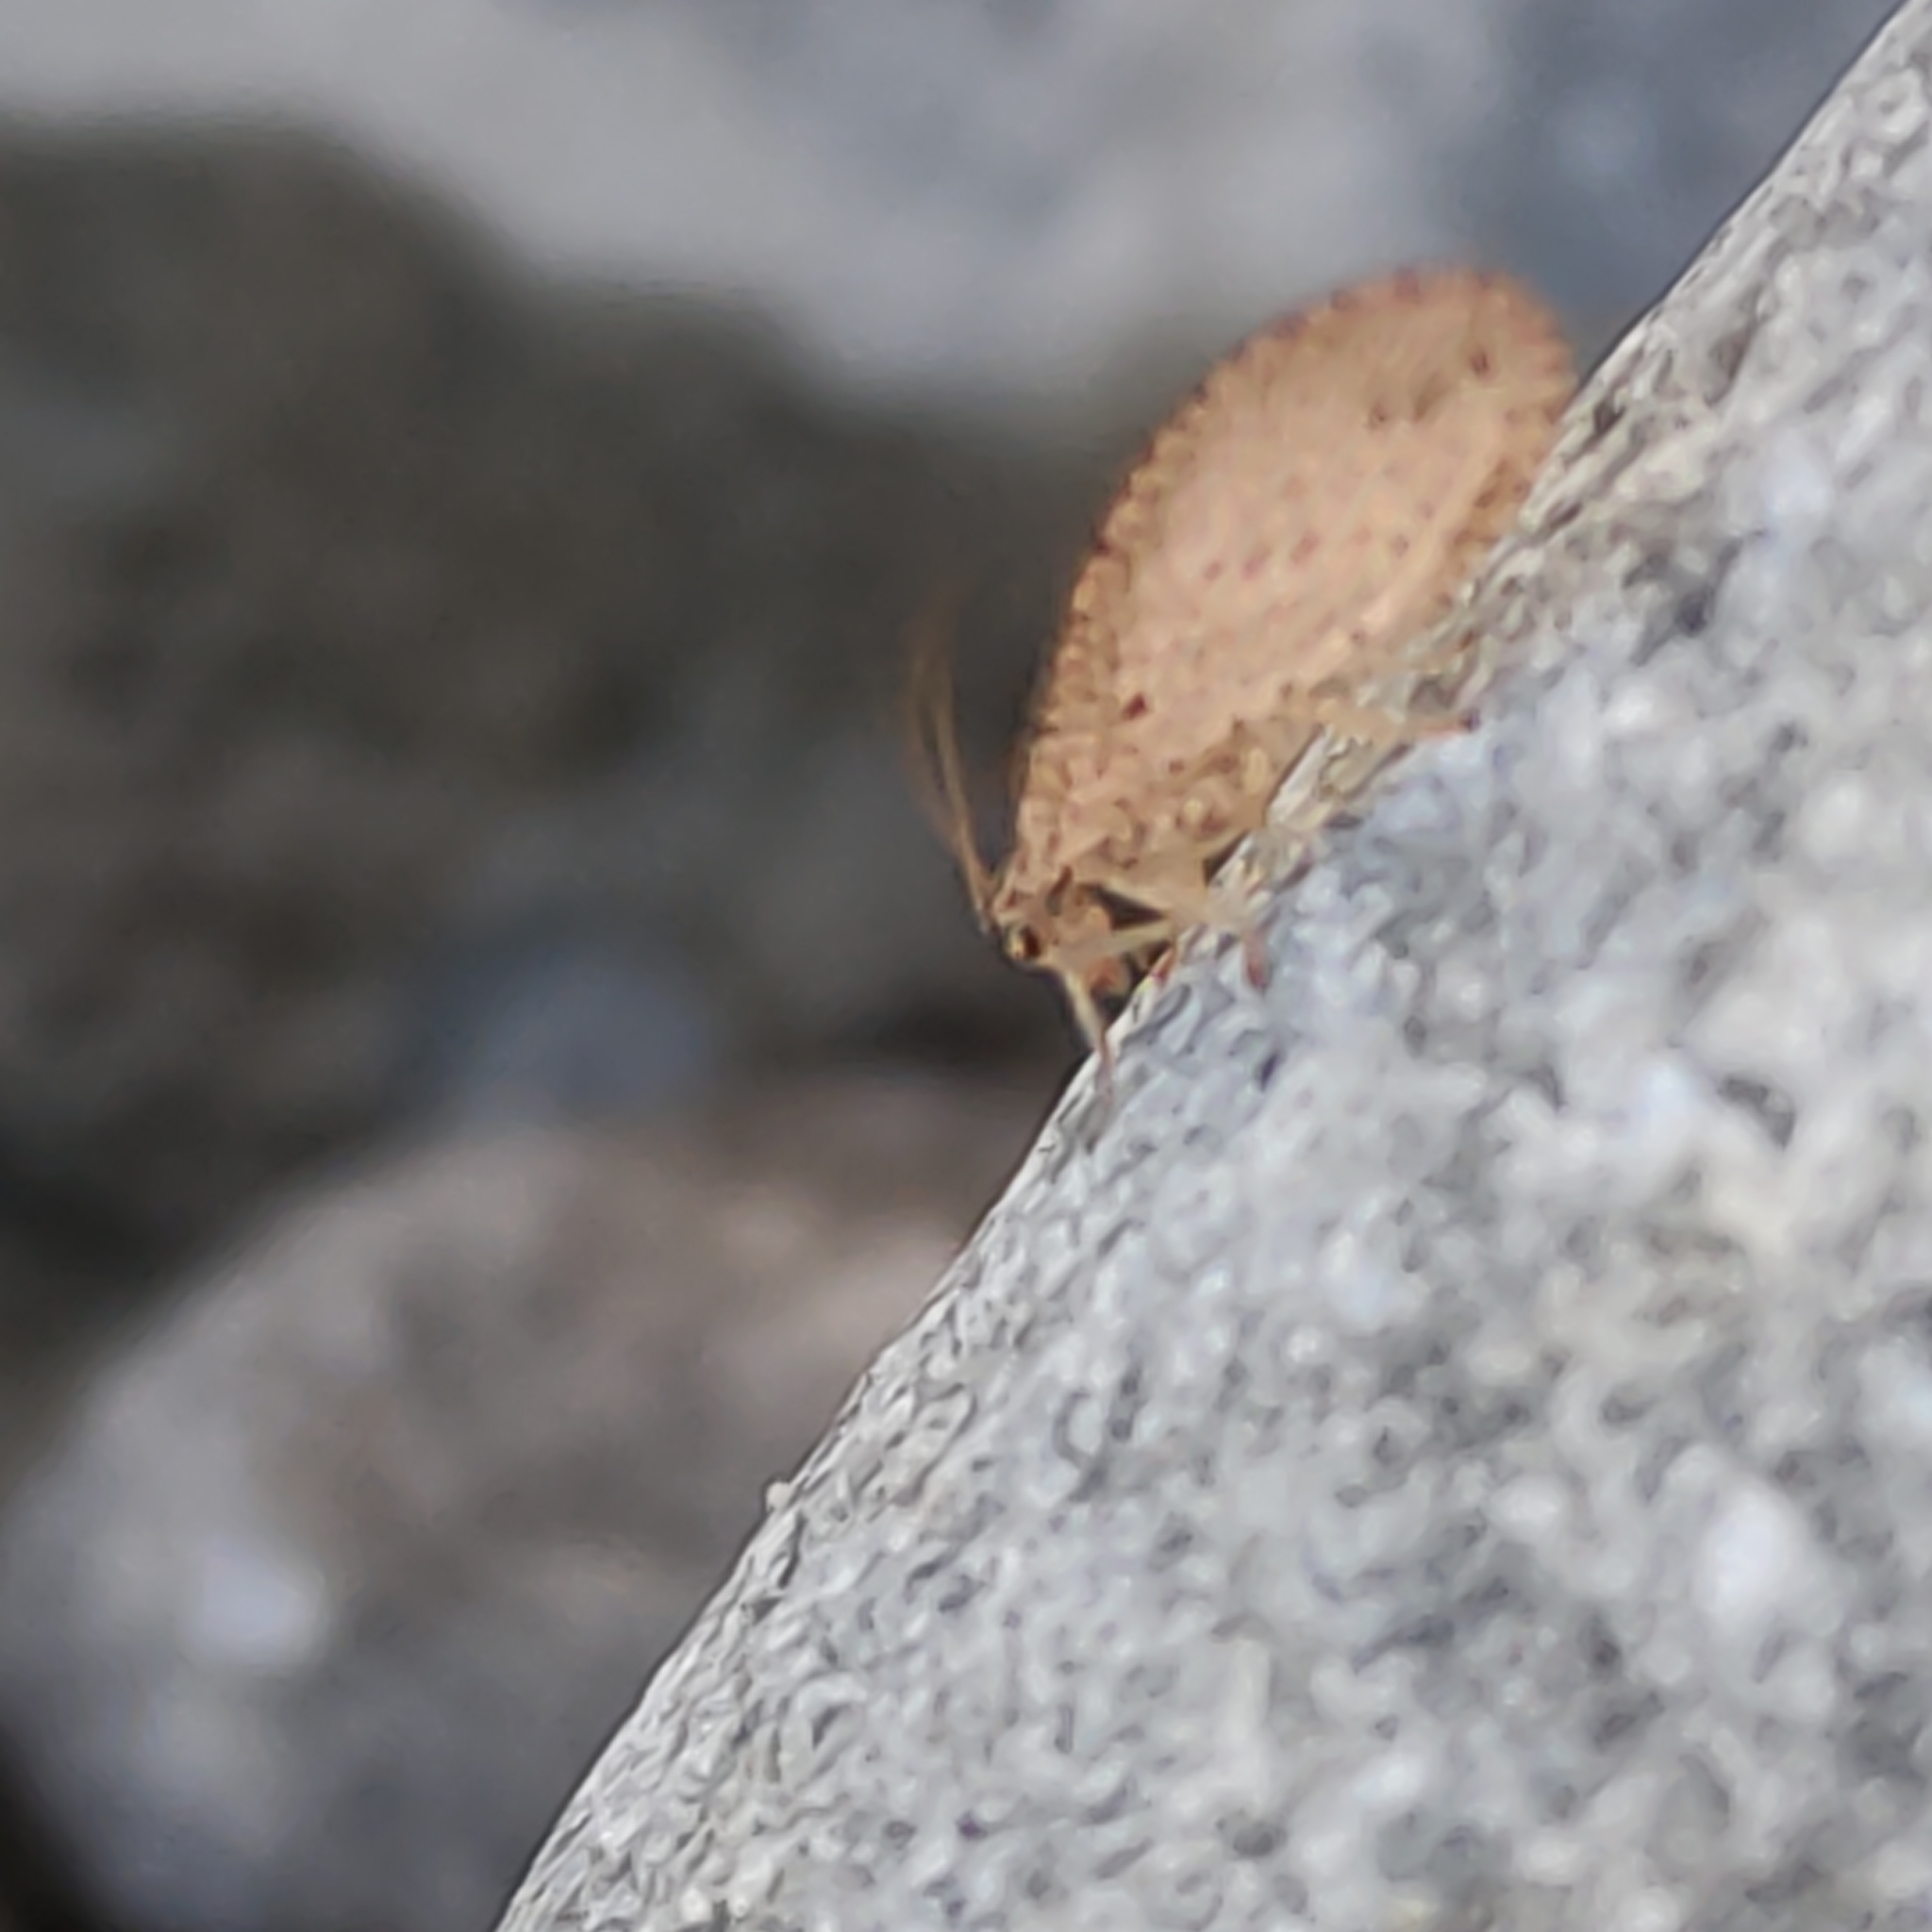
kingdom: Animalia
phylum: Arthropoda
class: Insecta
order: Neuroptera
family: Hemerobiidae
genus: Micromus
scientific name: Micromus tasmaniae
